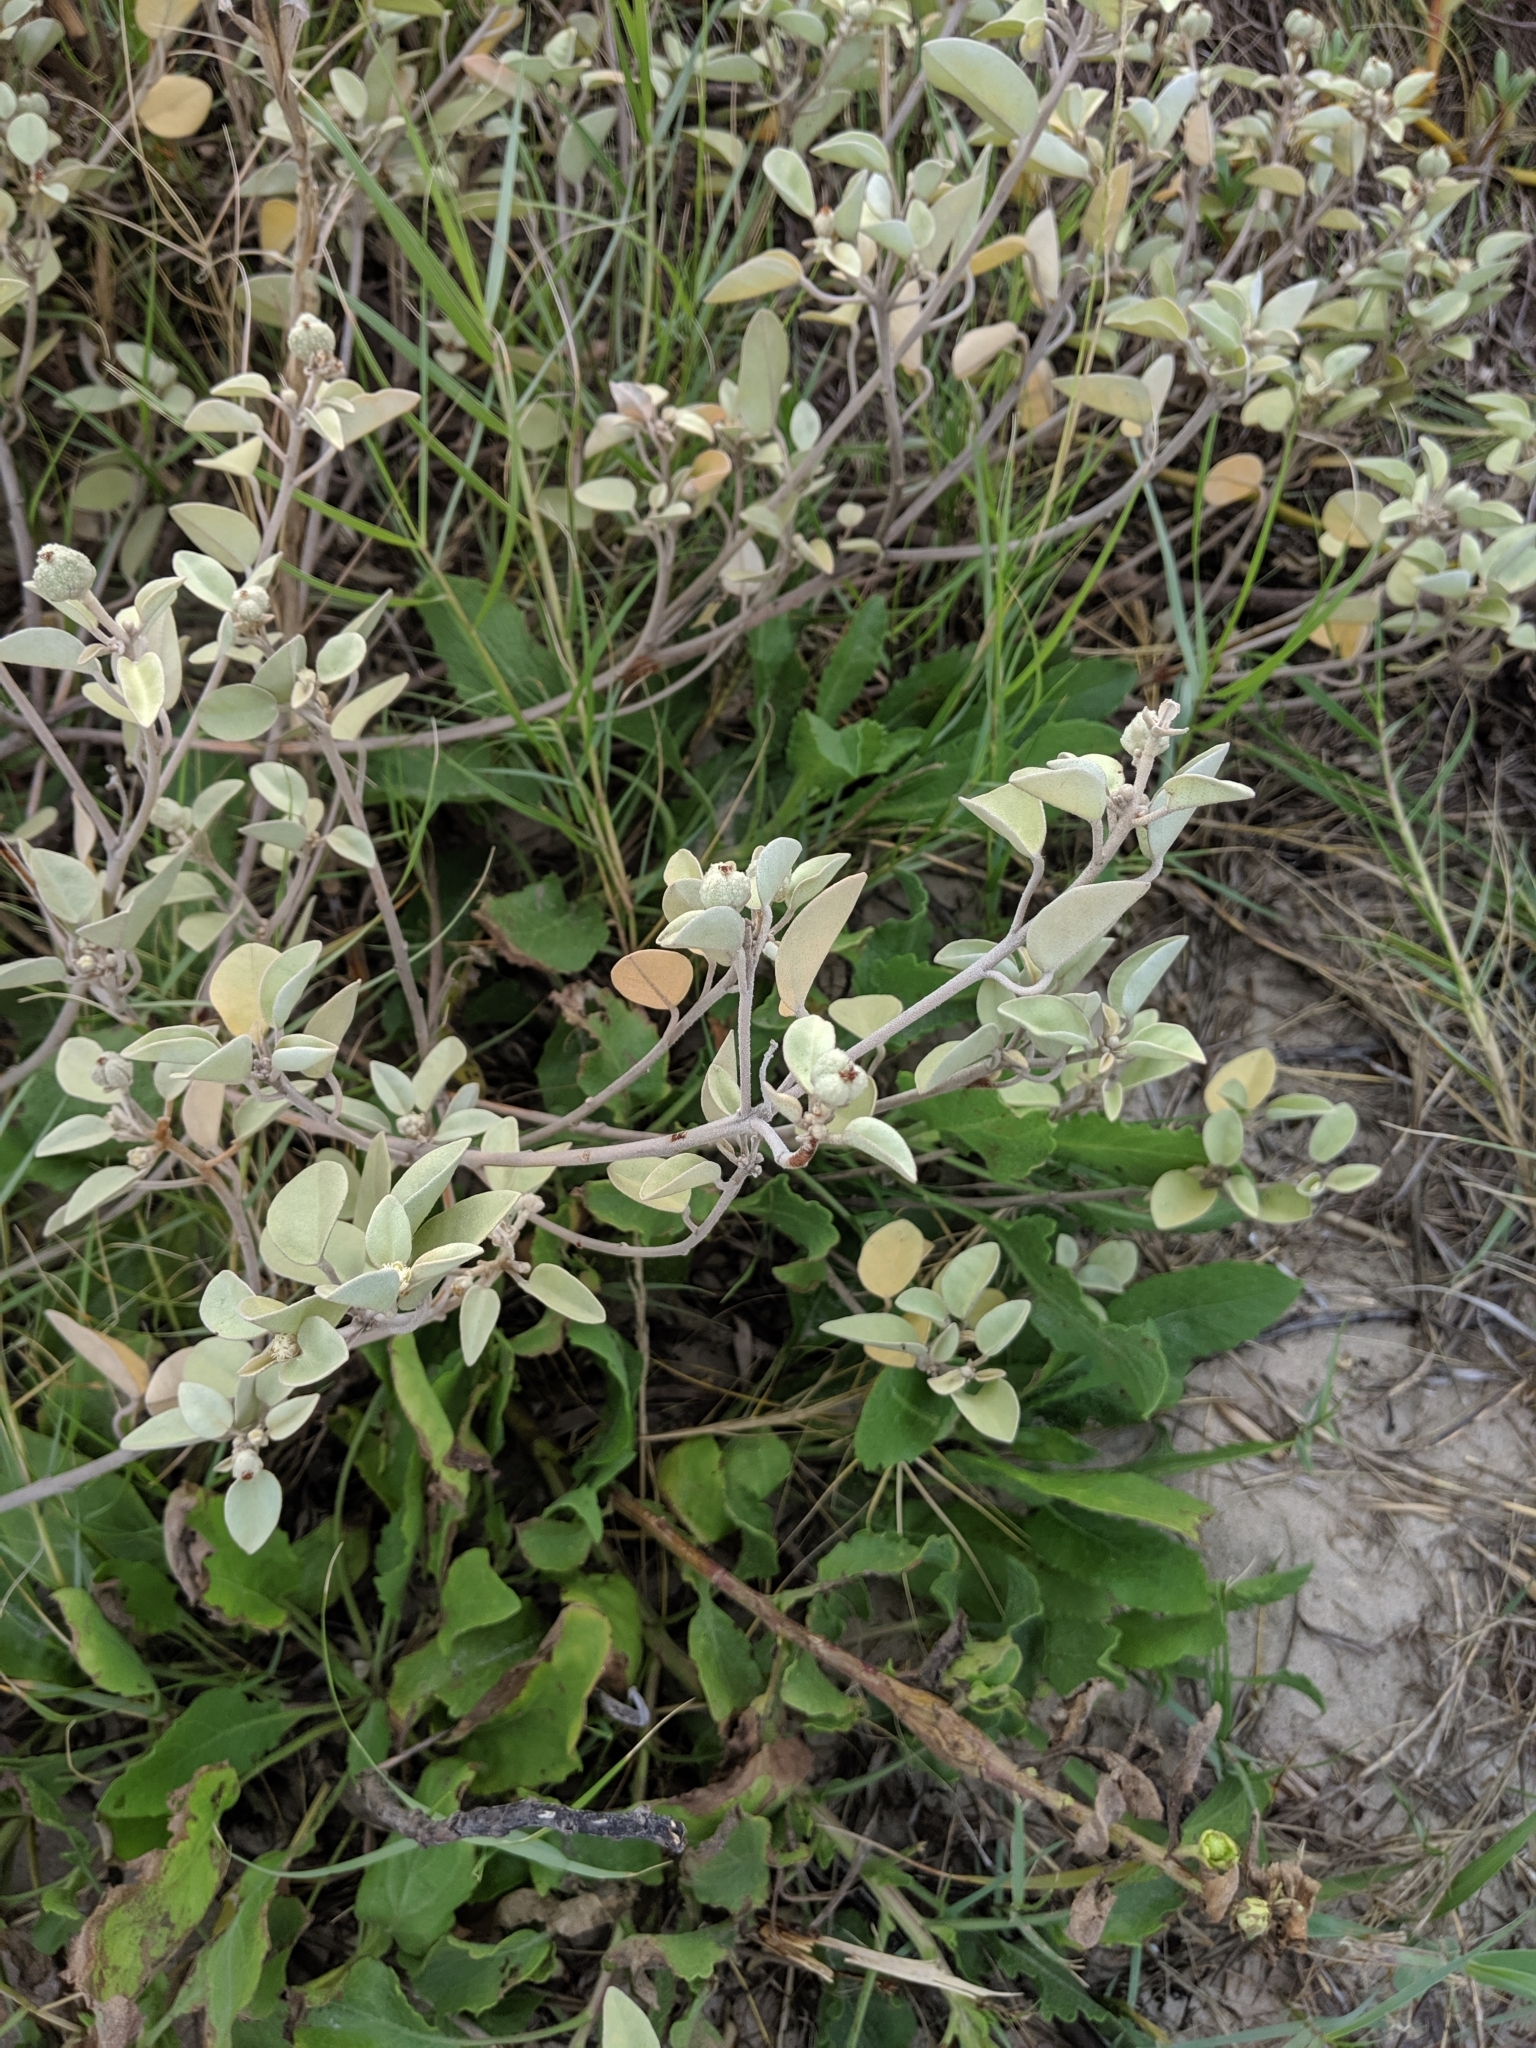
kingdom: Plantae
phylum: Tracheophyta
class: Magnoliopsida
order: Malpighiales
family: Euphorbiaceae
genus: Croton
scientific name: Croton punctatus
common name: Beach-tea
